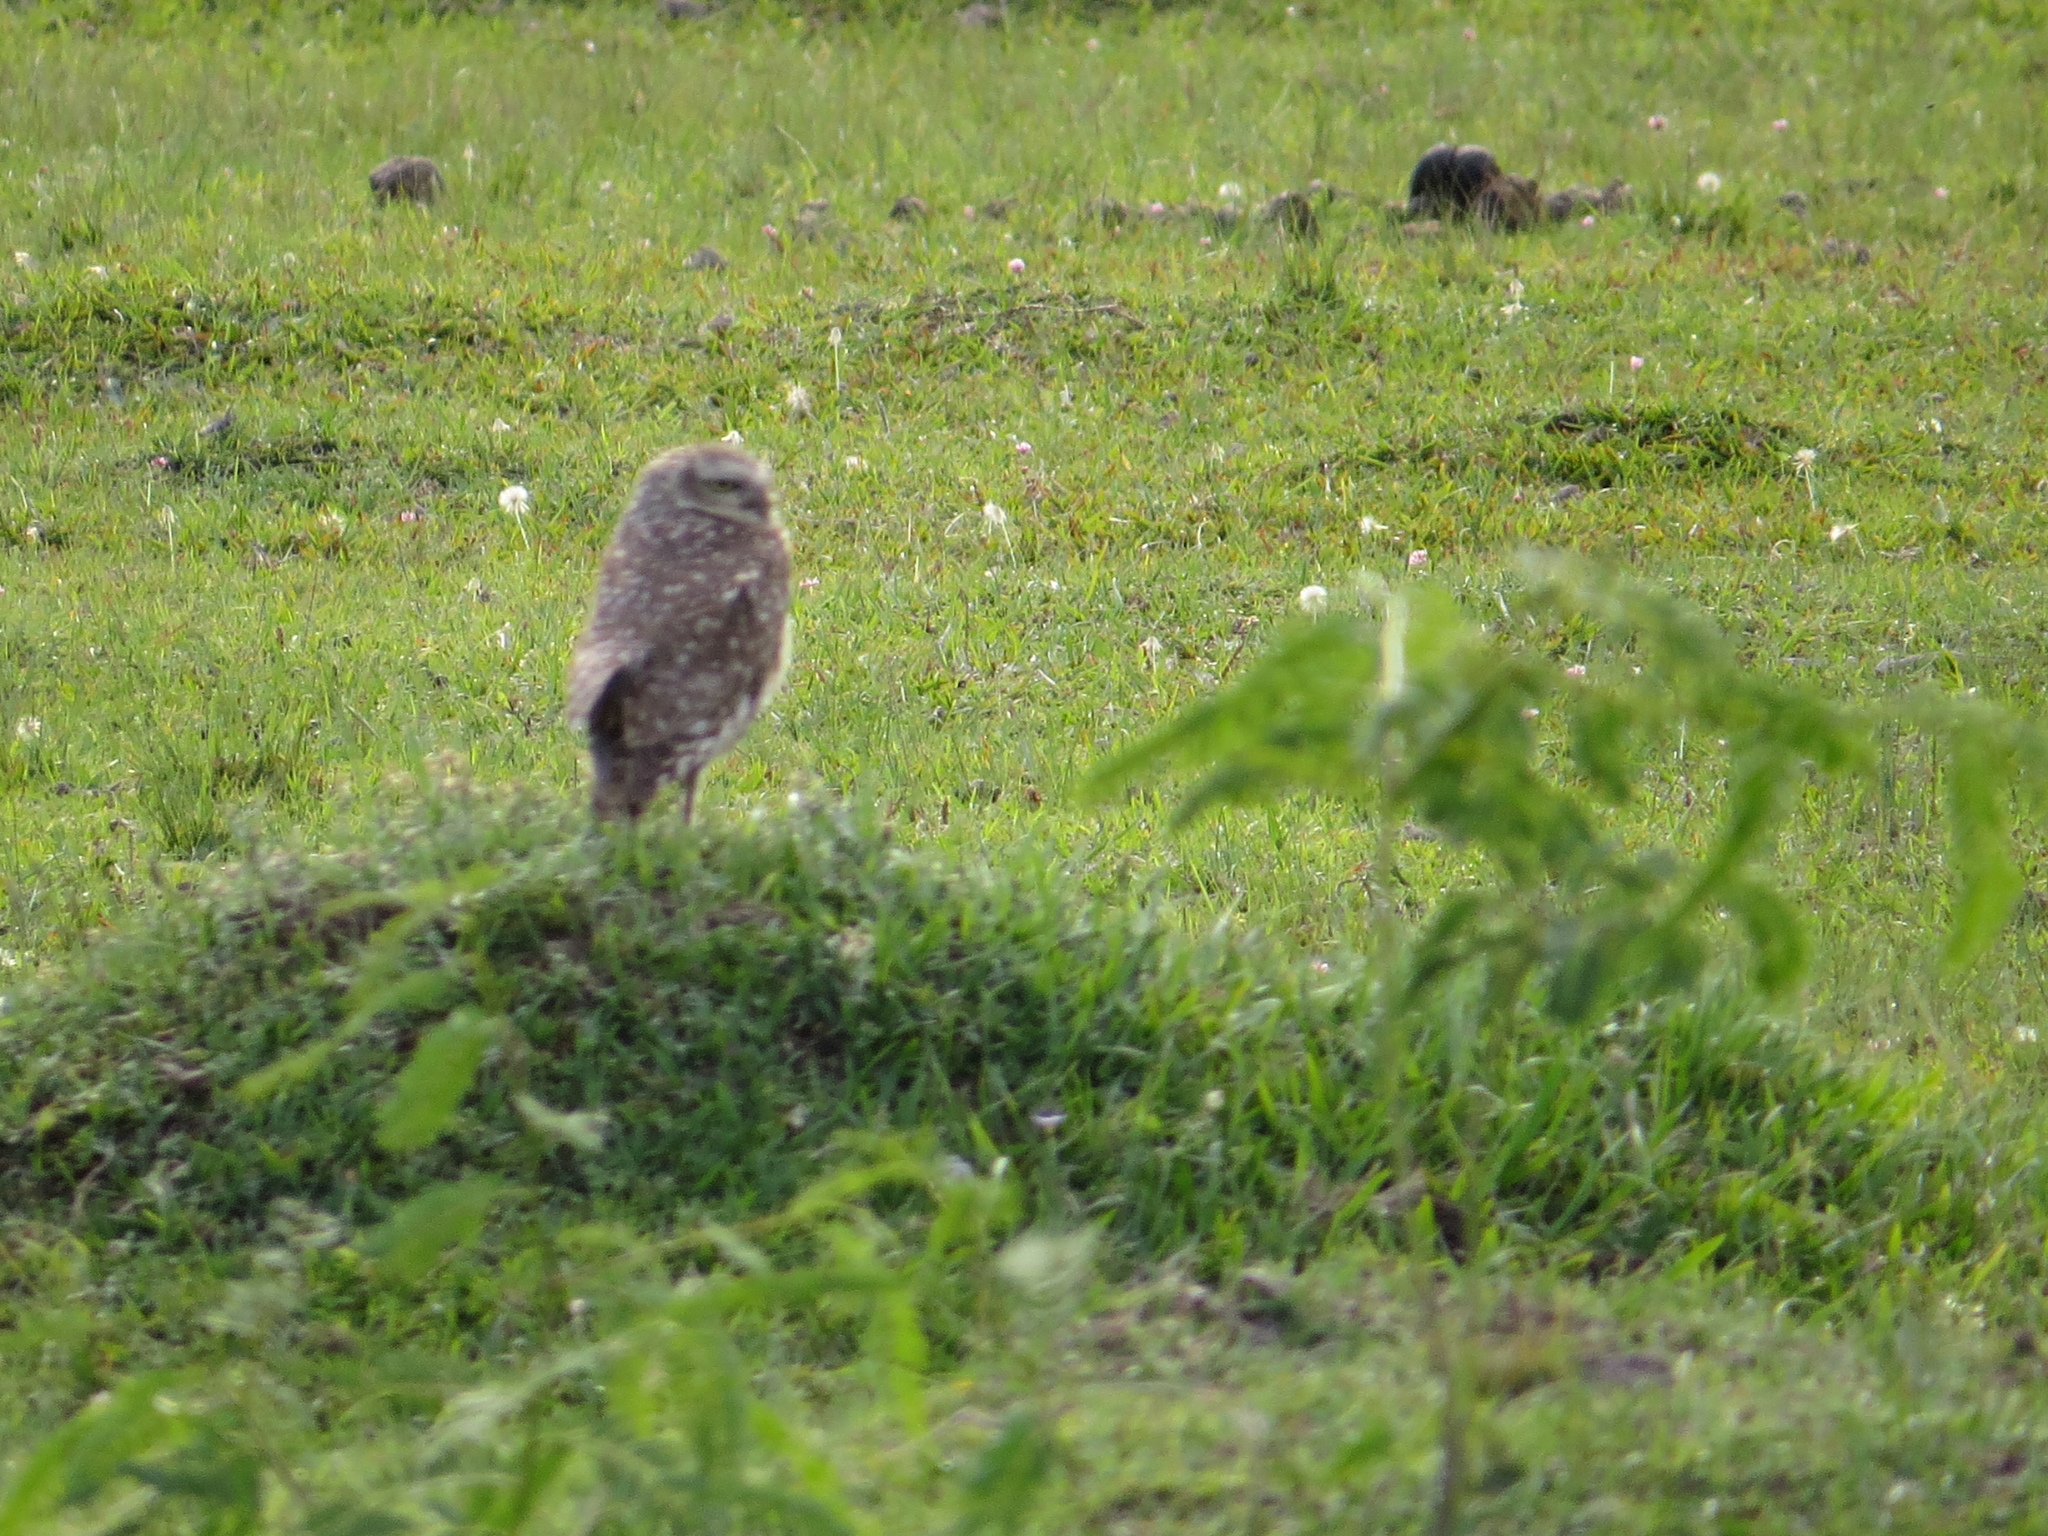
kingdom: Animalia
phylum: Chordata
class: Aves
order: Strigiformes
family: Strigidae
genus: Athene
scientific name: Athene cunicularia
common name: Burrowing owl
